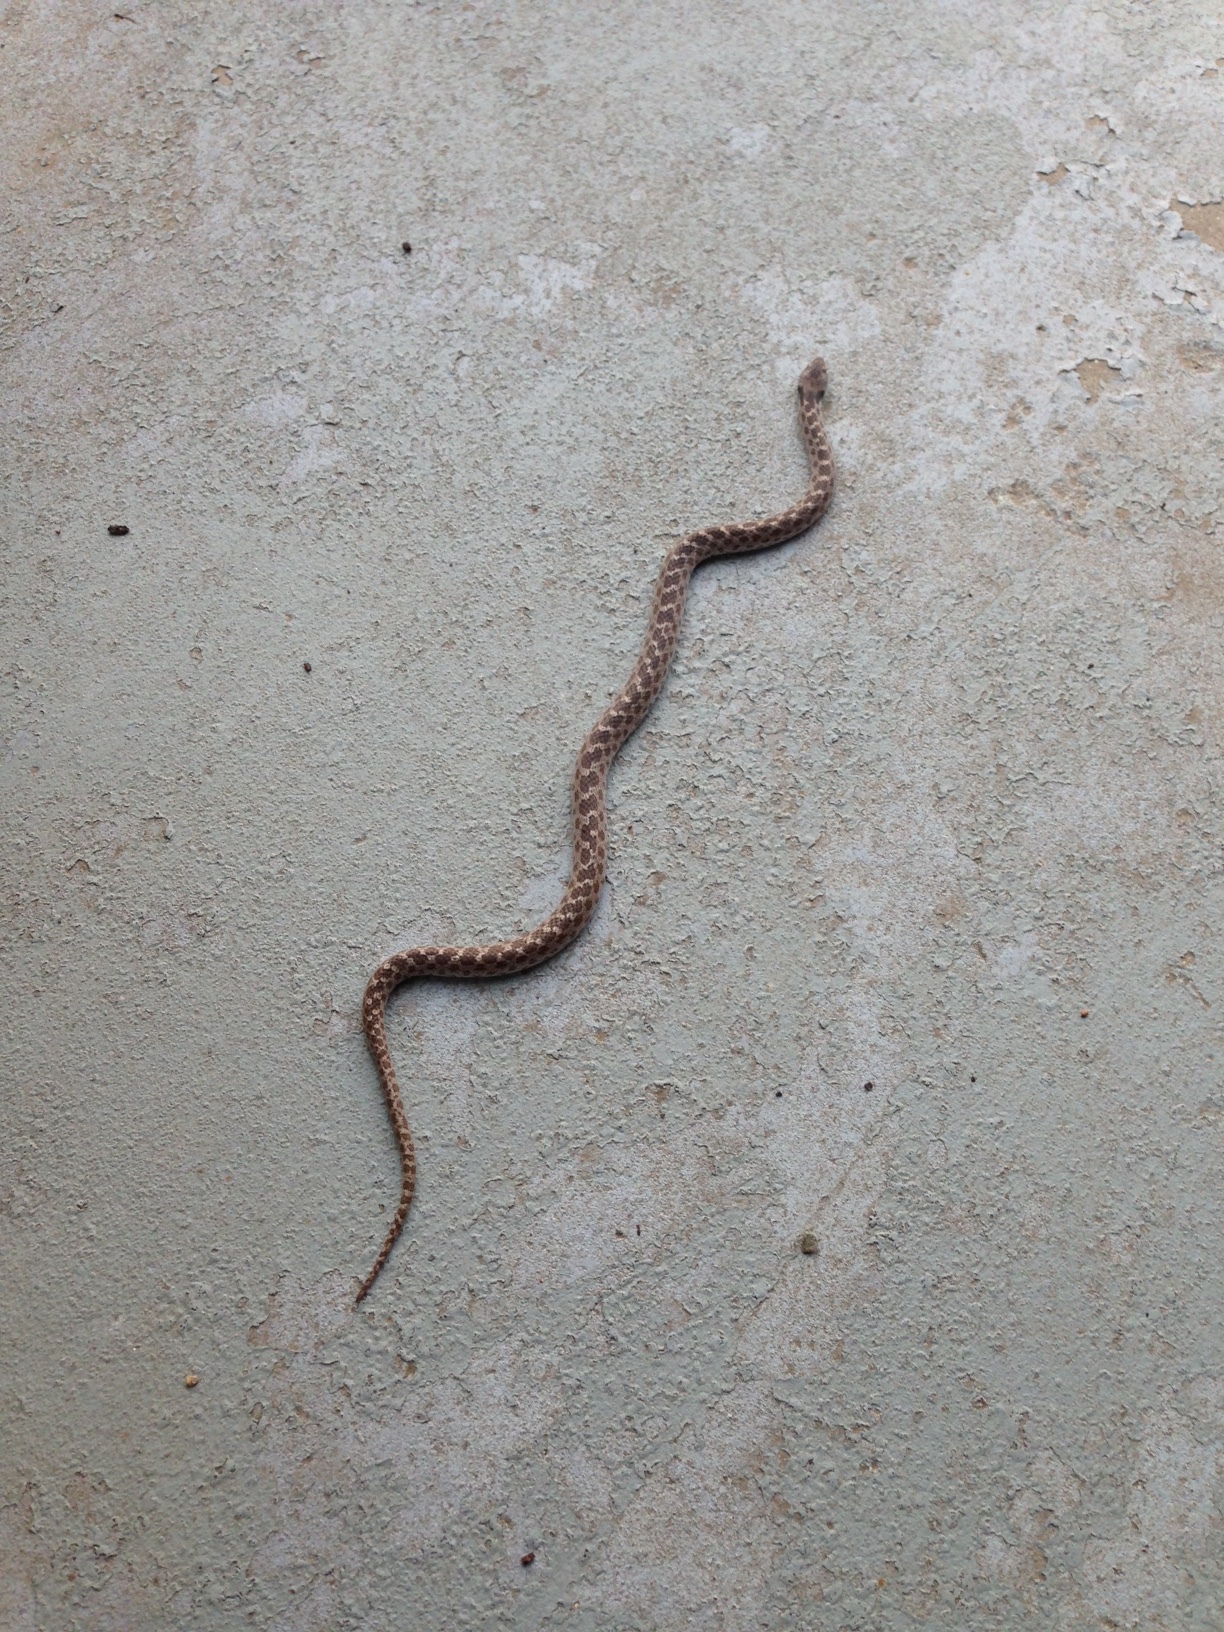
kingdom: Animalia
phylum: Chordata
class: Squamata
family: Colubridae
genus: Hypsiglena
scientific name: Hypsiglena ochrorhynchus
